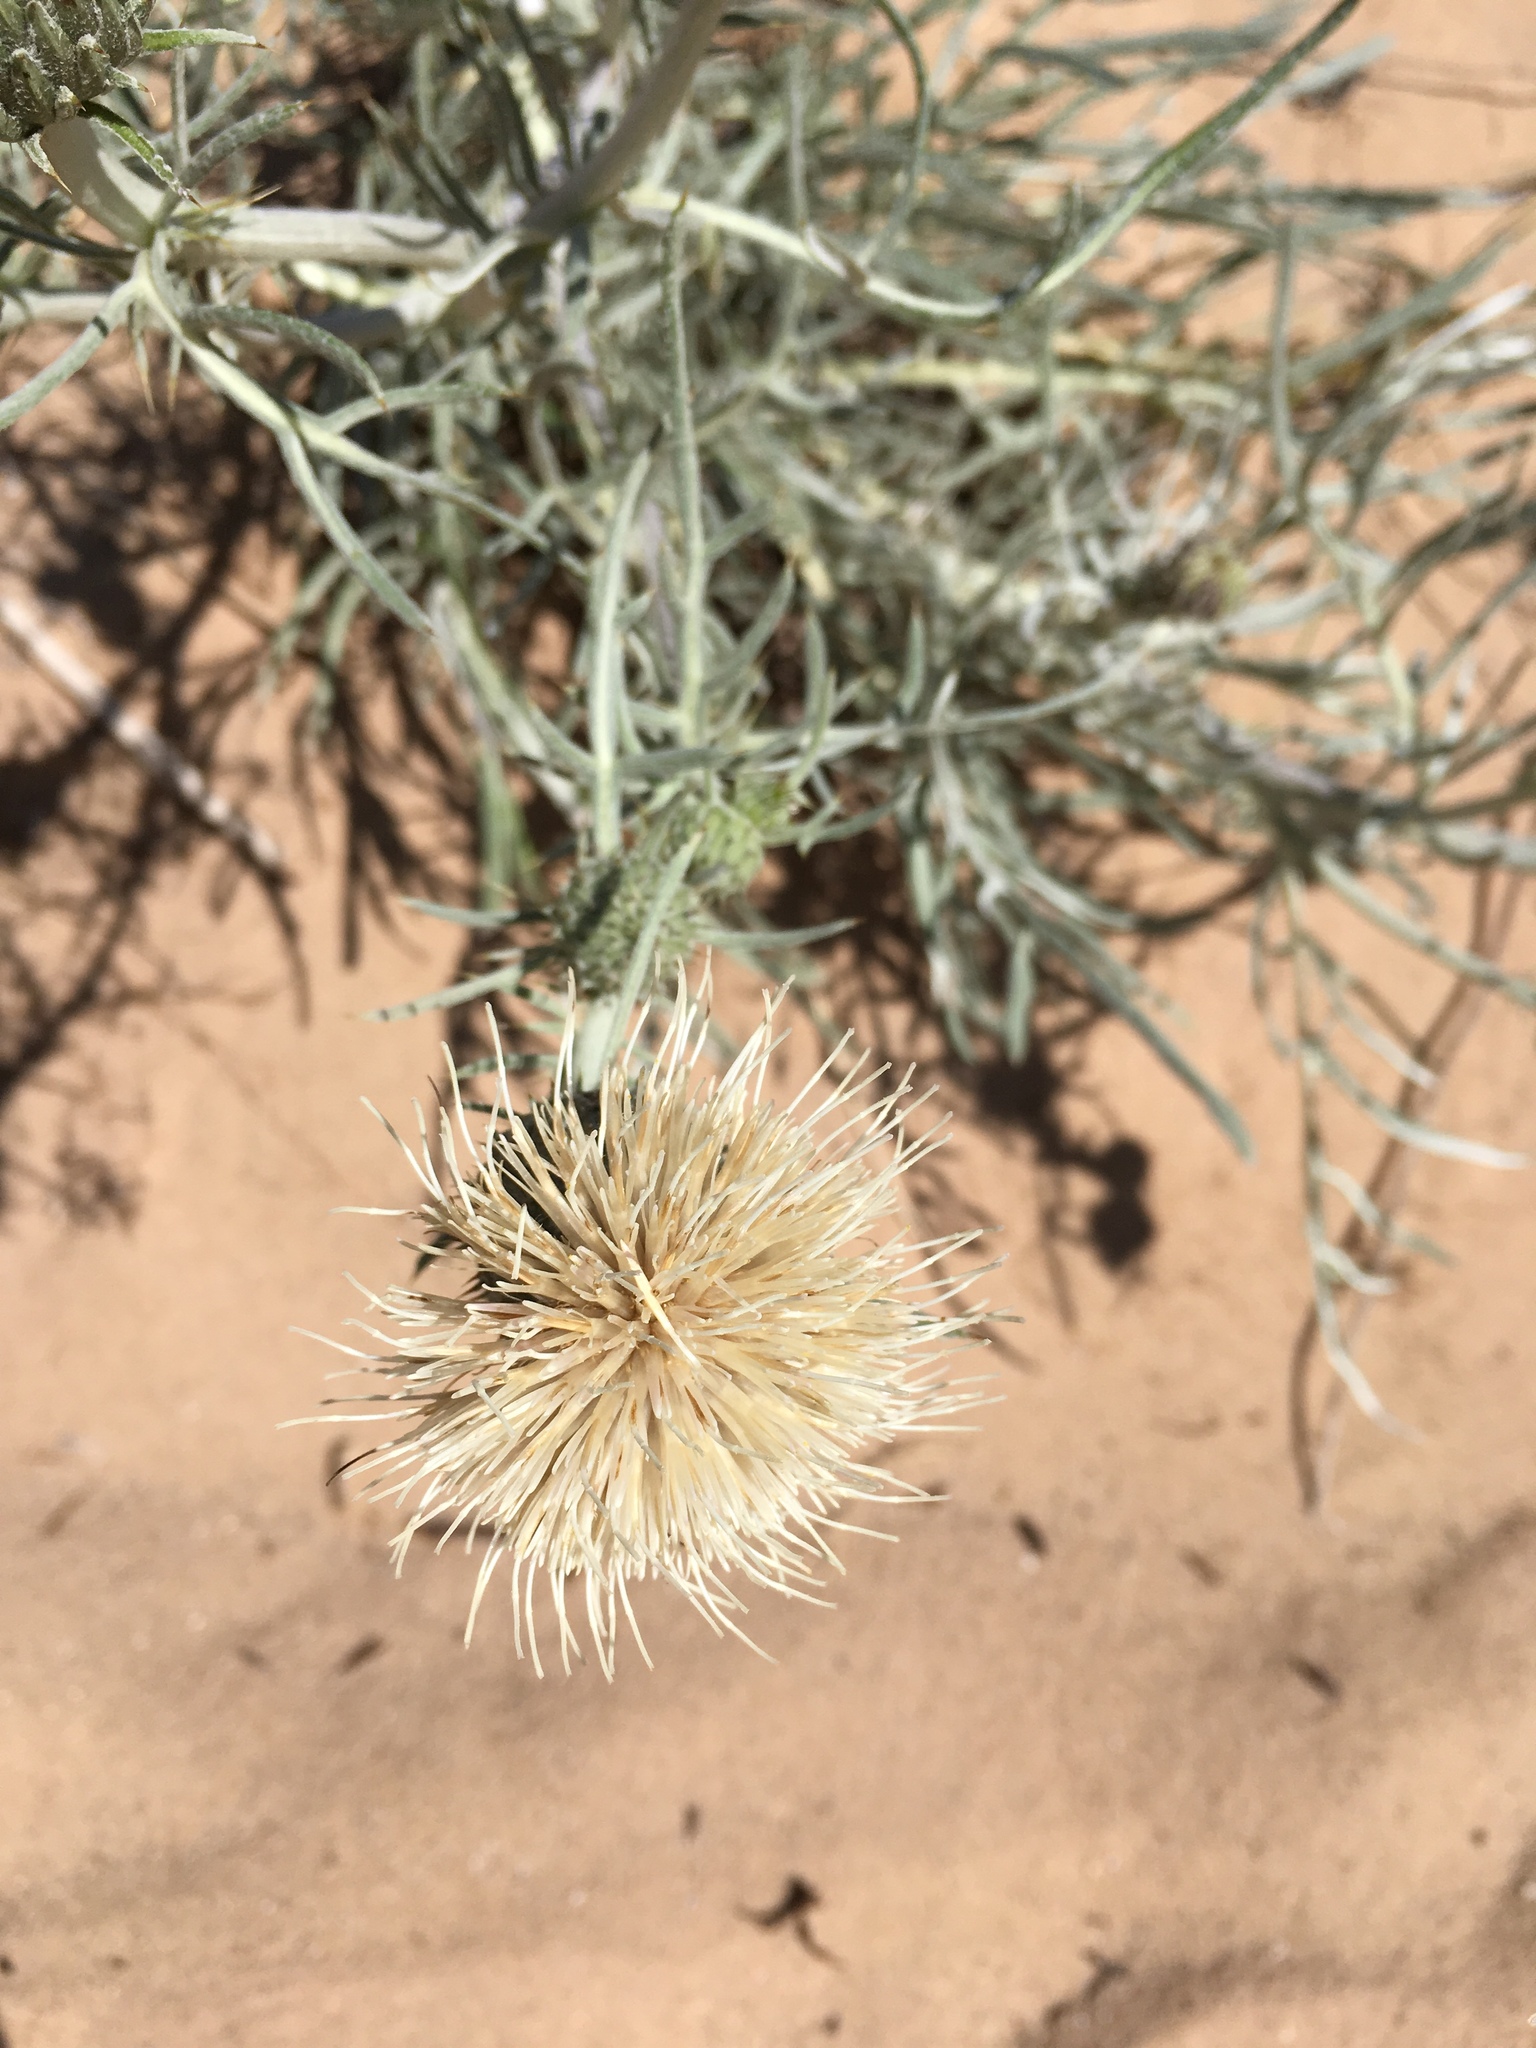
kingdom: Plantae
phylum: Tracheophyta
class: Magnoliopsida
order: Asterales
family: Asteraceae
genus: Cirsium
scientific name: Cirsium pitcheri
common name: Dune thistle
